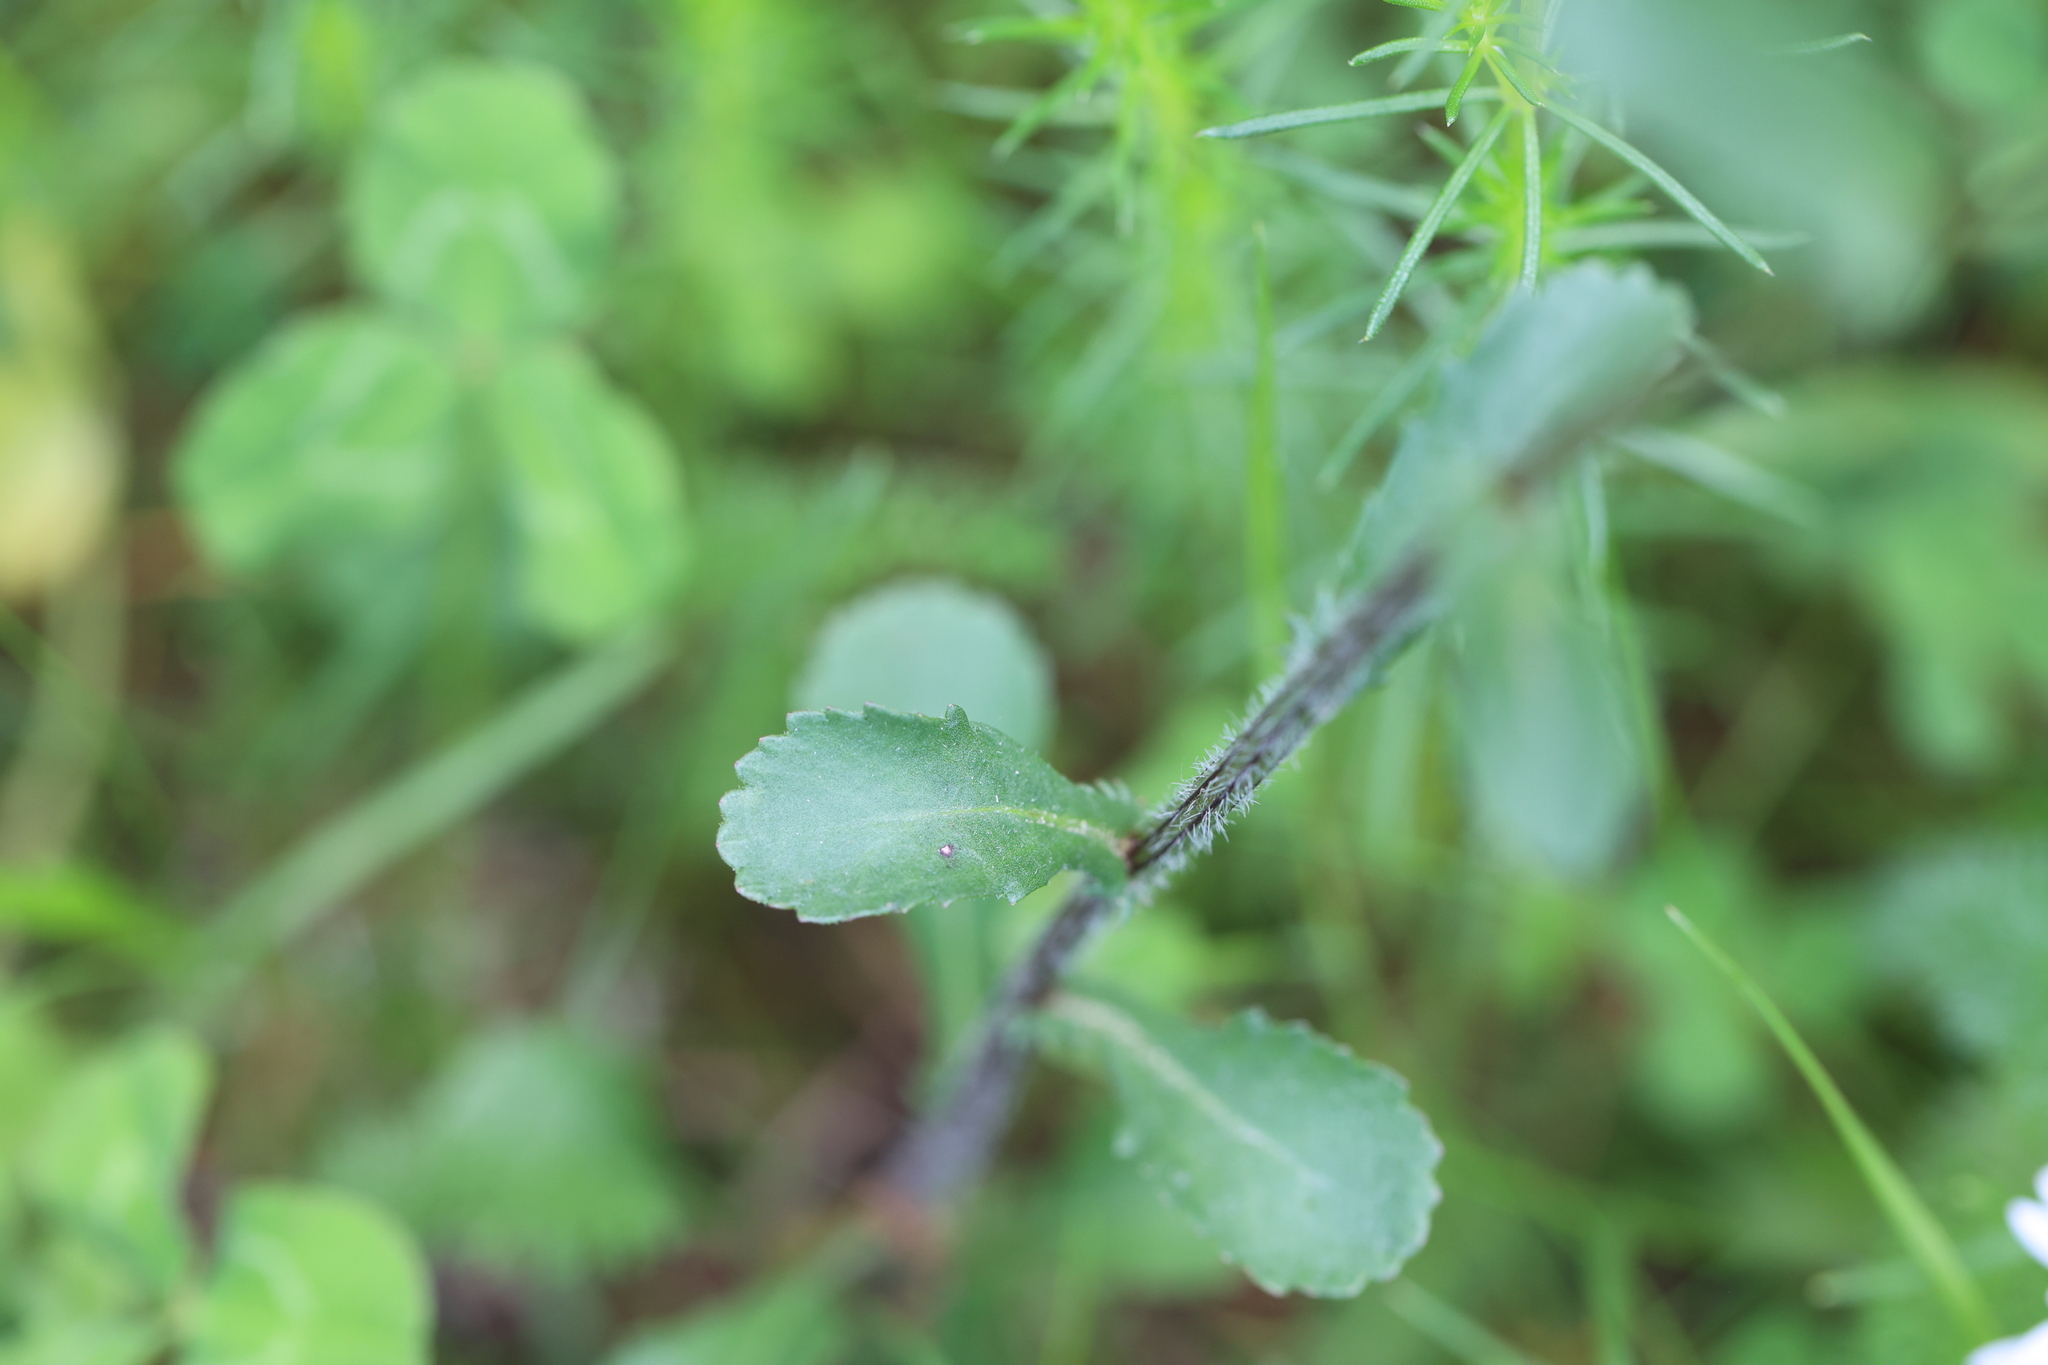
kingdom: Plantae
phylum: Tracheophyta
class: Magnoliopsida
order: Asterales
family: Asteraceae
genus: Leucanthemum
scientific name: Leucanthemum vulgare
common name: Oxeye daisy
